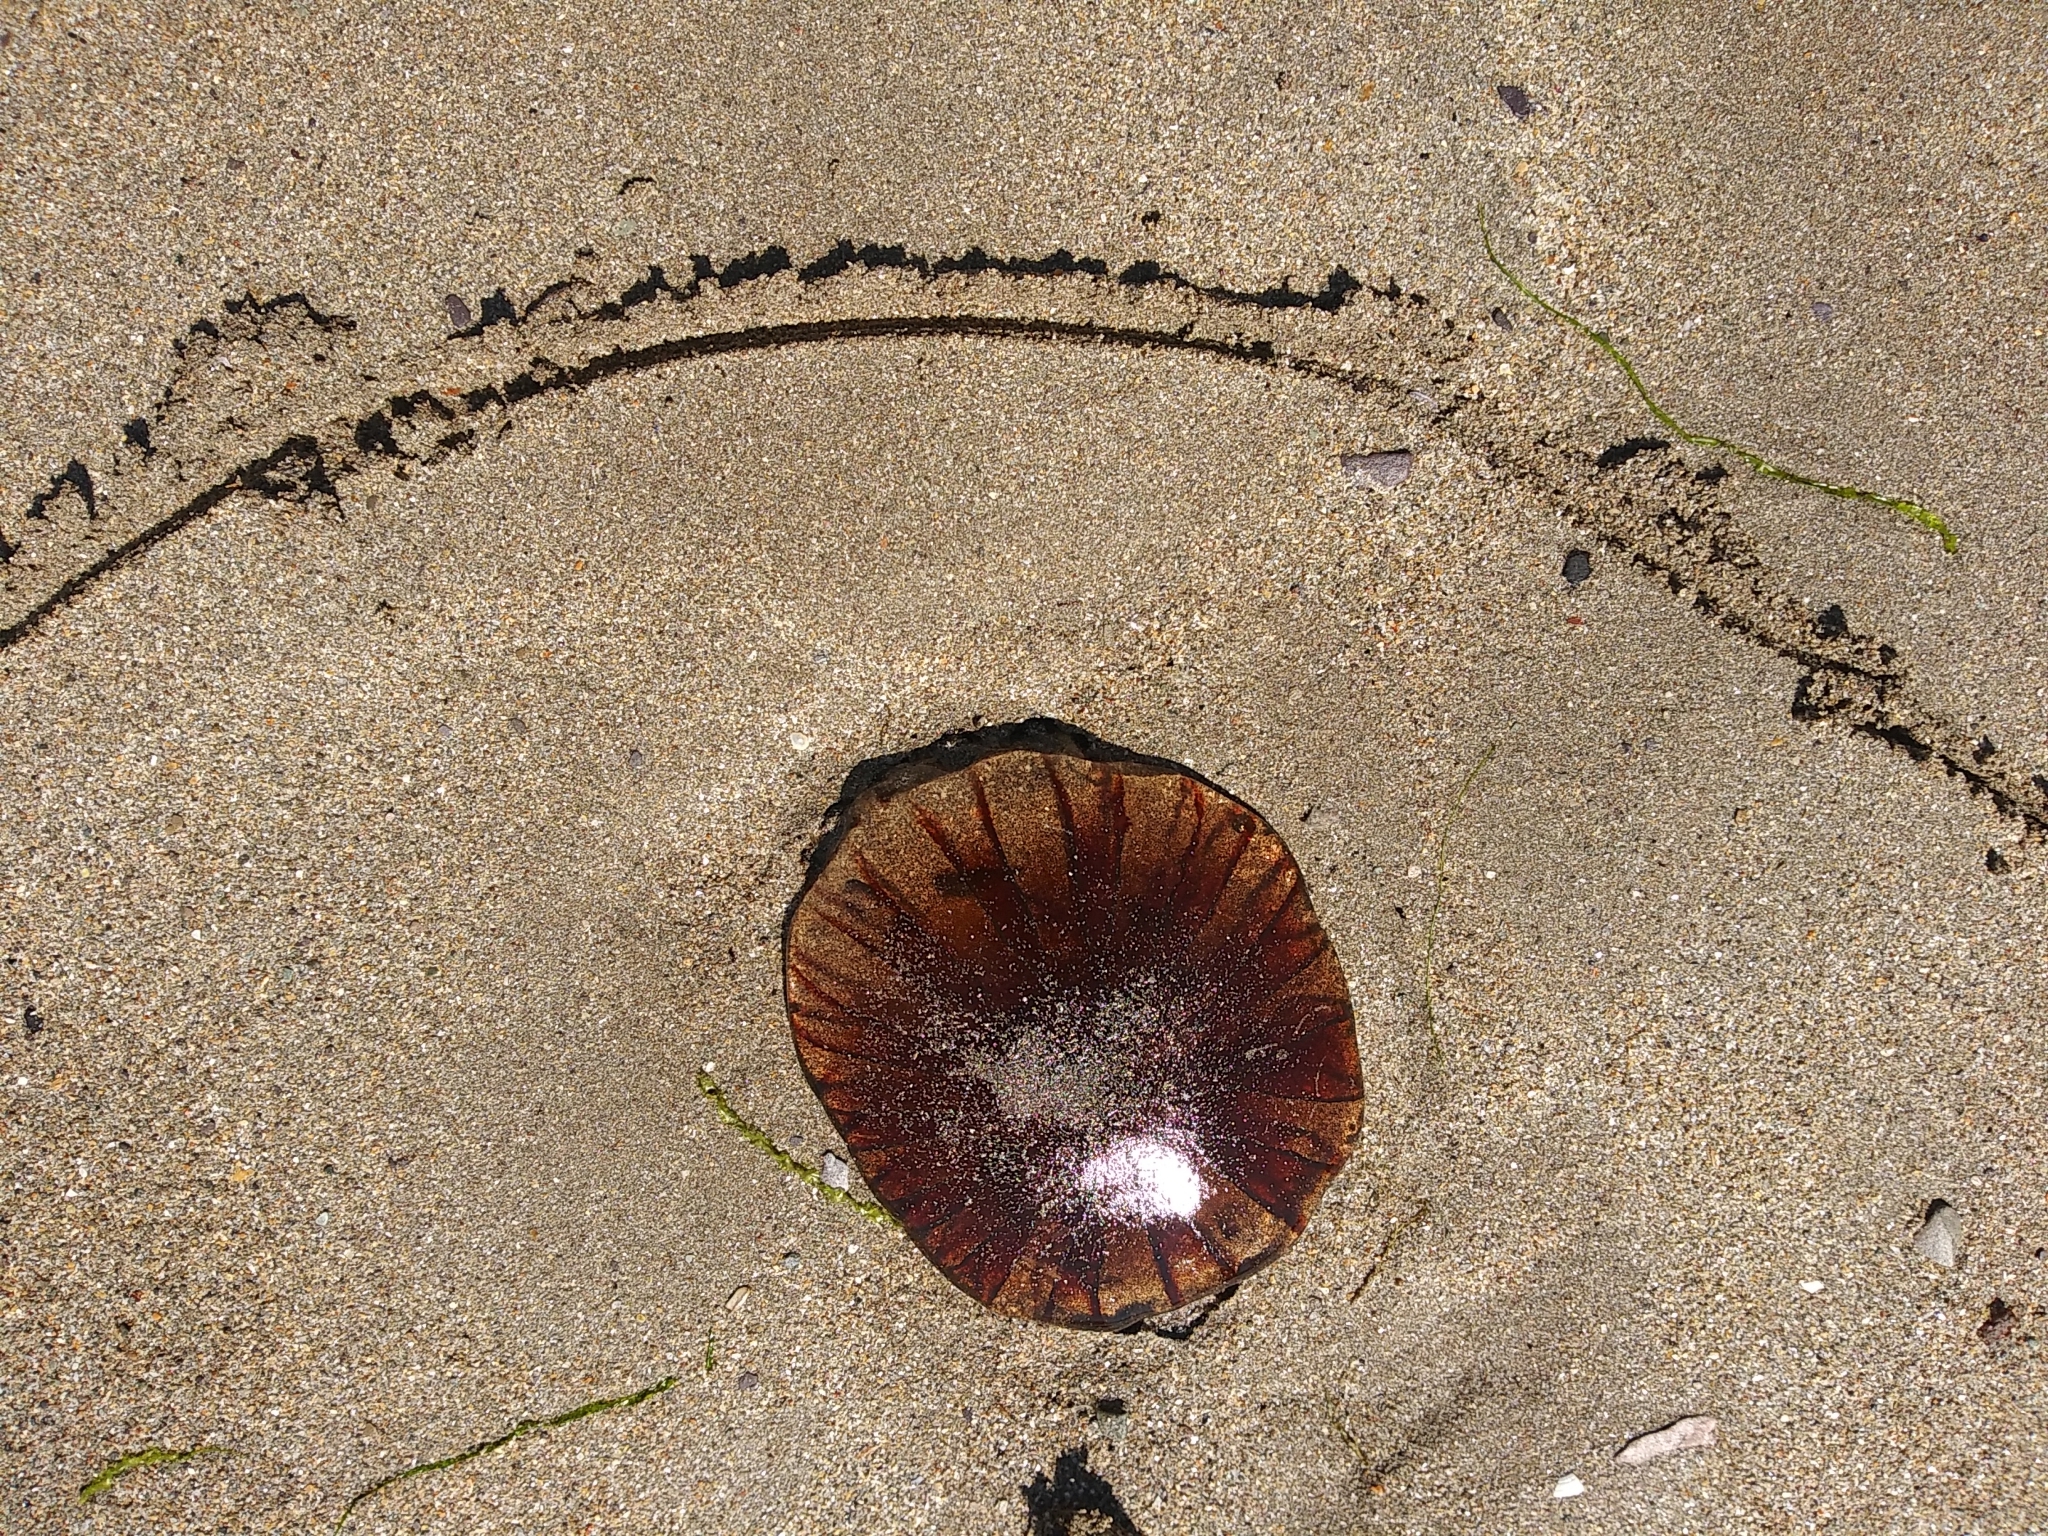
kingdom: Animalia
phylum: Cnidaria
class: Scyphozoa
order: Semaeostomeae
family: Pelagiidae
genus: Chrysaora
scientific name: Chrysaora hysoscella
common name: Compass jellyfish
